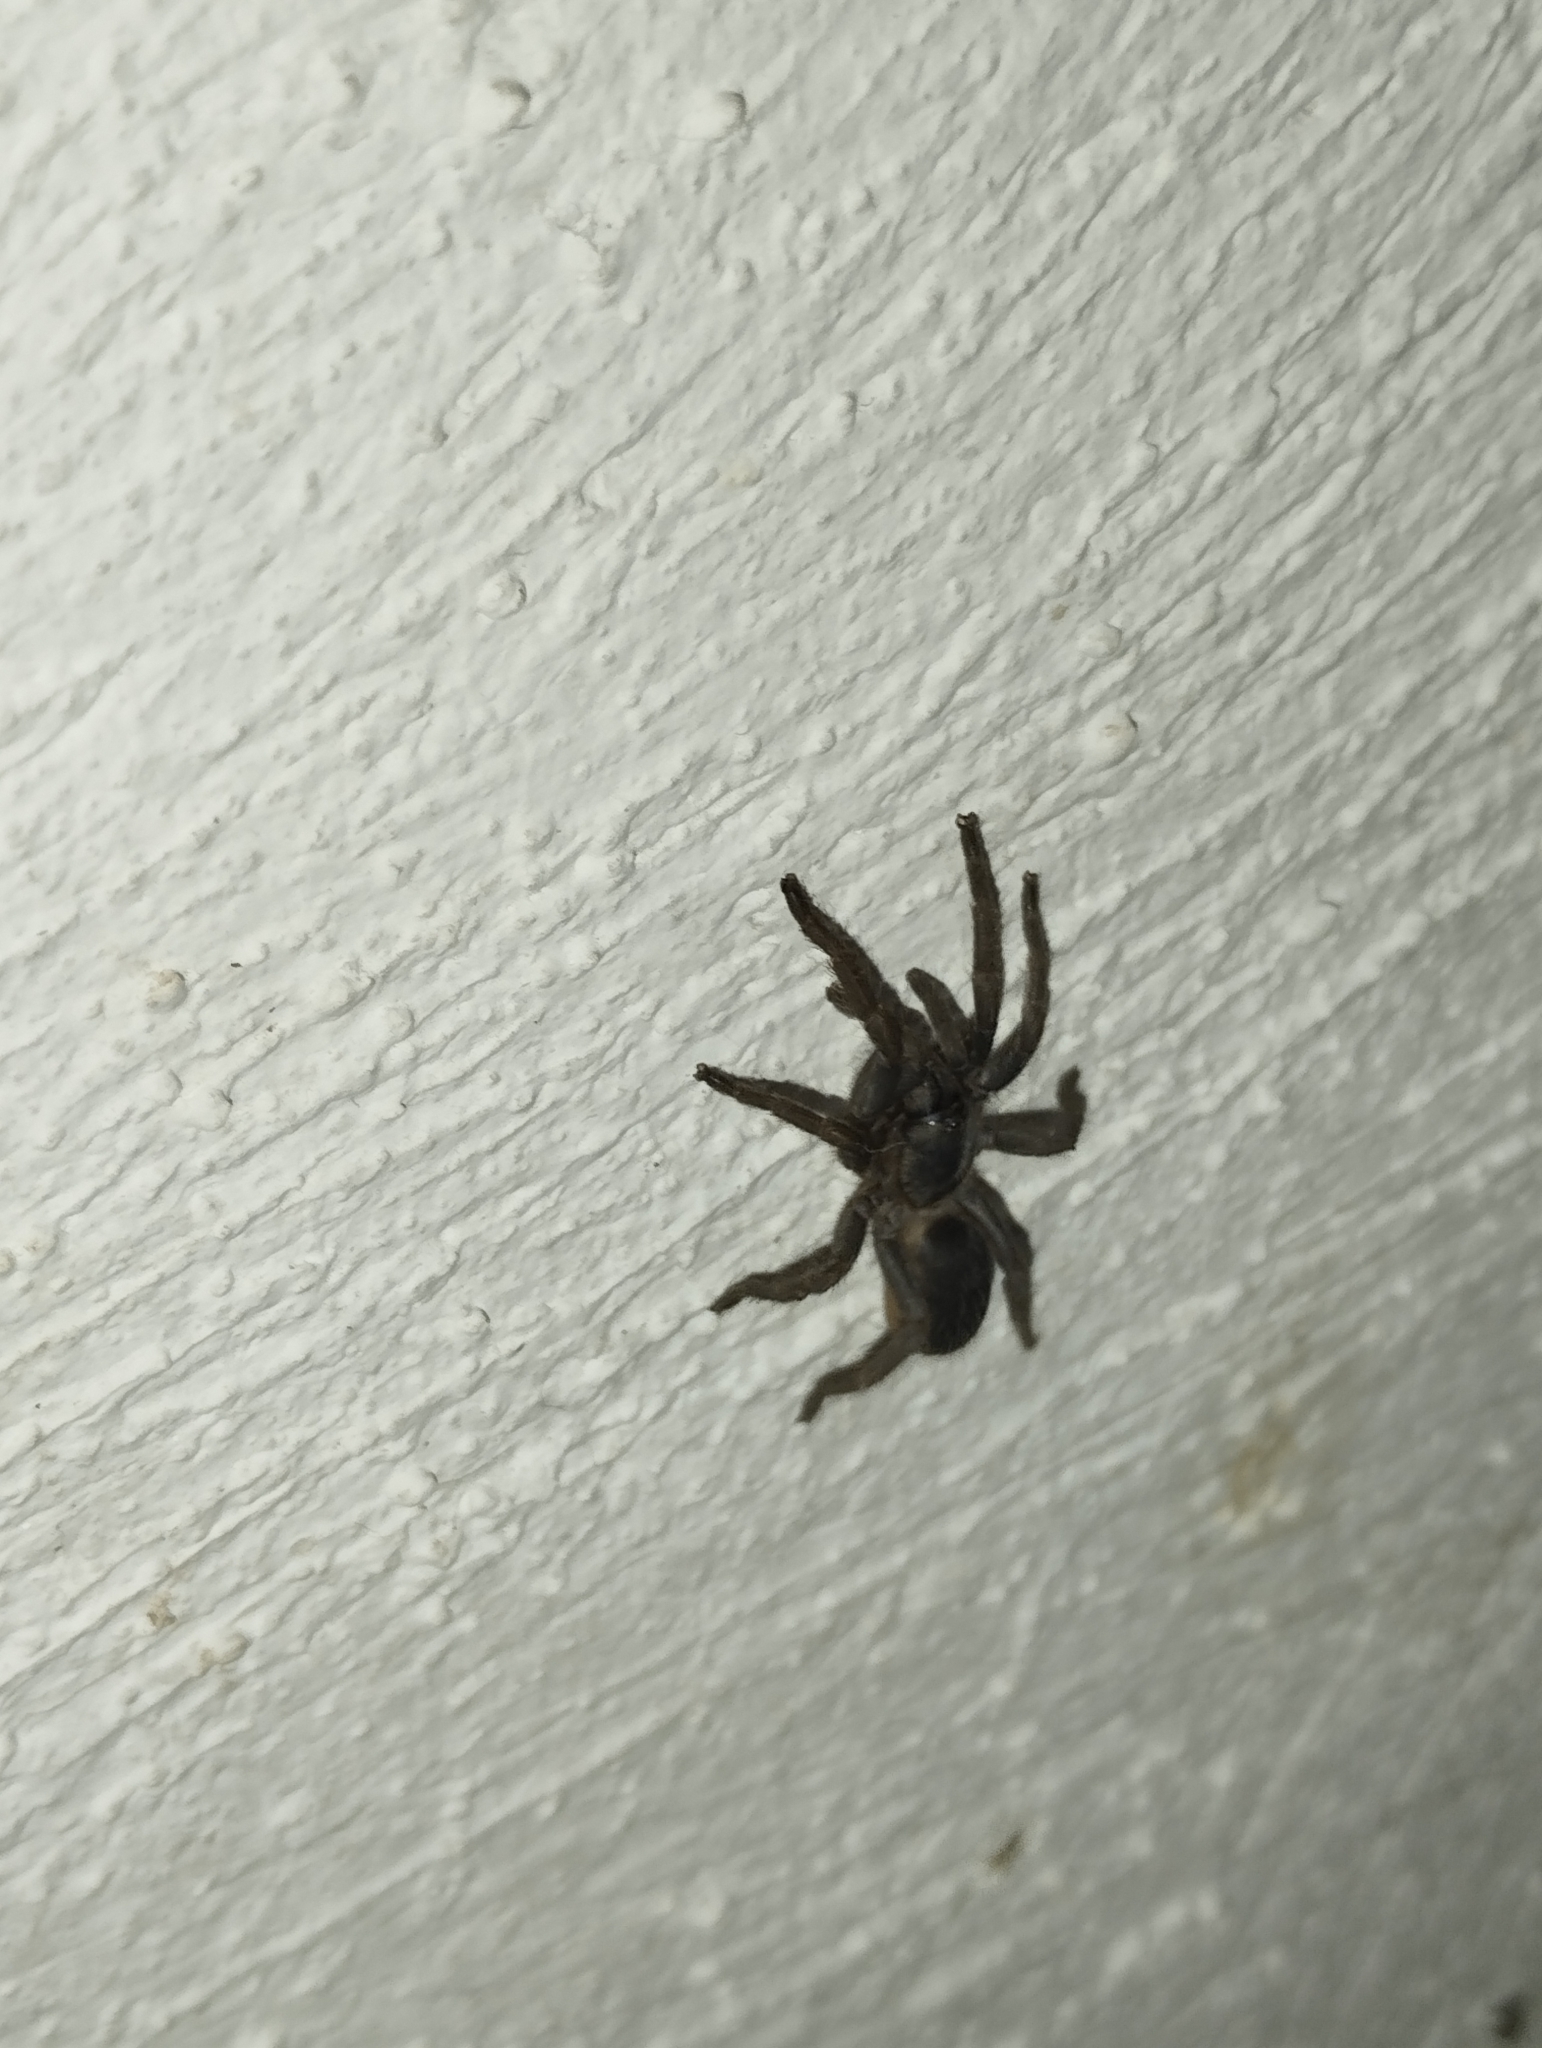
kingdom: Animalia
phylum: Arthropoda
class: Arachnida
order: Araneae
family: Theraphosidae
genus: Tliltocatl
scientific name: Tliltocatl epicureanus
